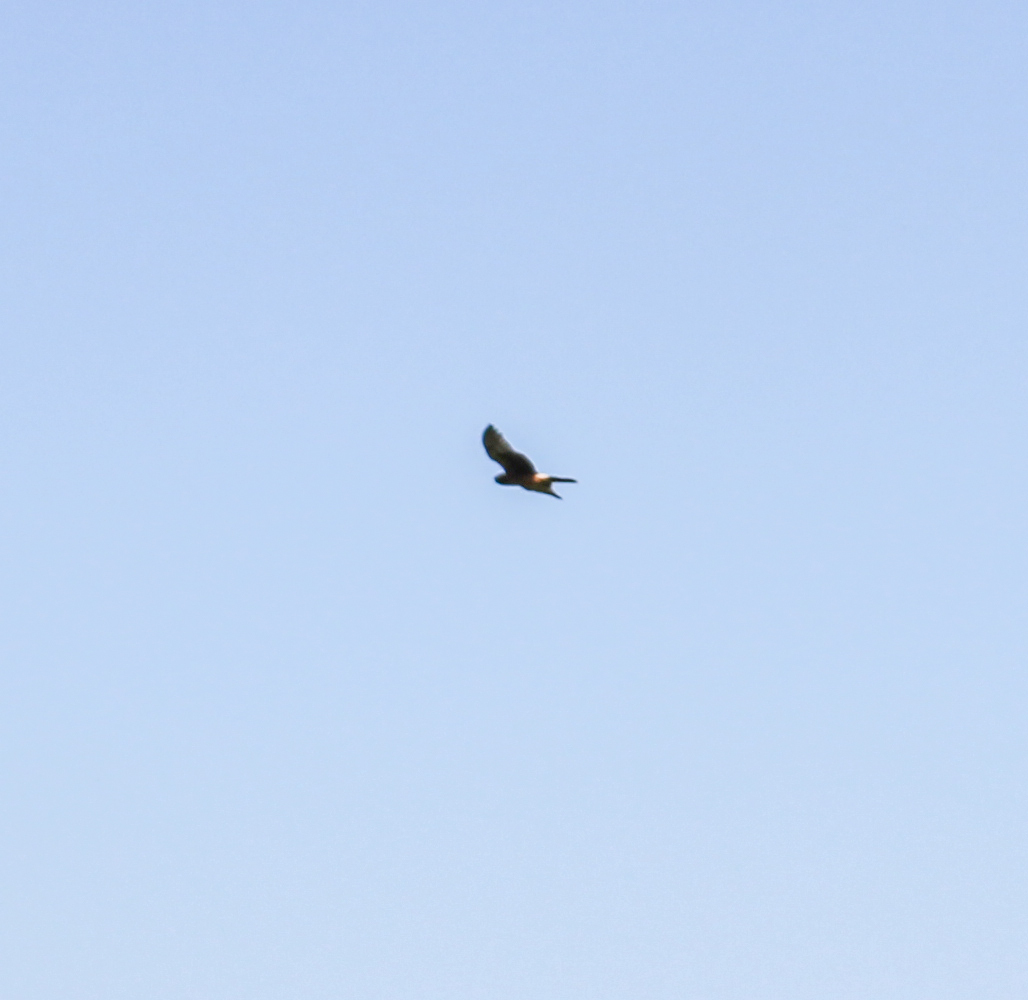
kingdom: Animalia
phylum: Chordata
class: Aves
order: Accipitriformes
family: Accipitridae
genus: Circus
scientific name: Circus cyaneus
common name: Hen harrier
